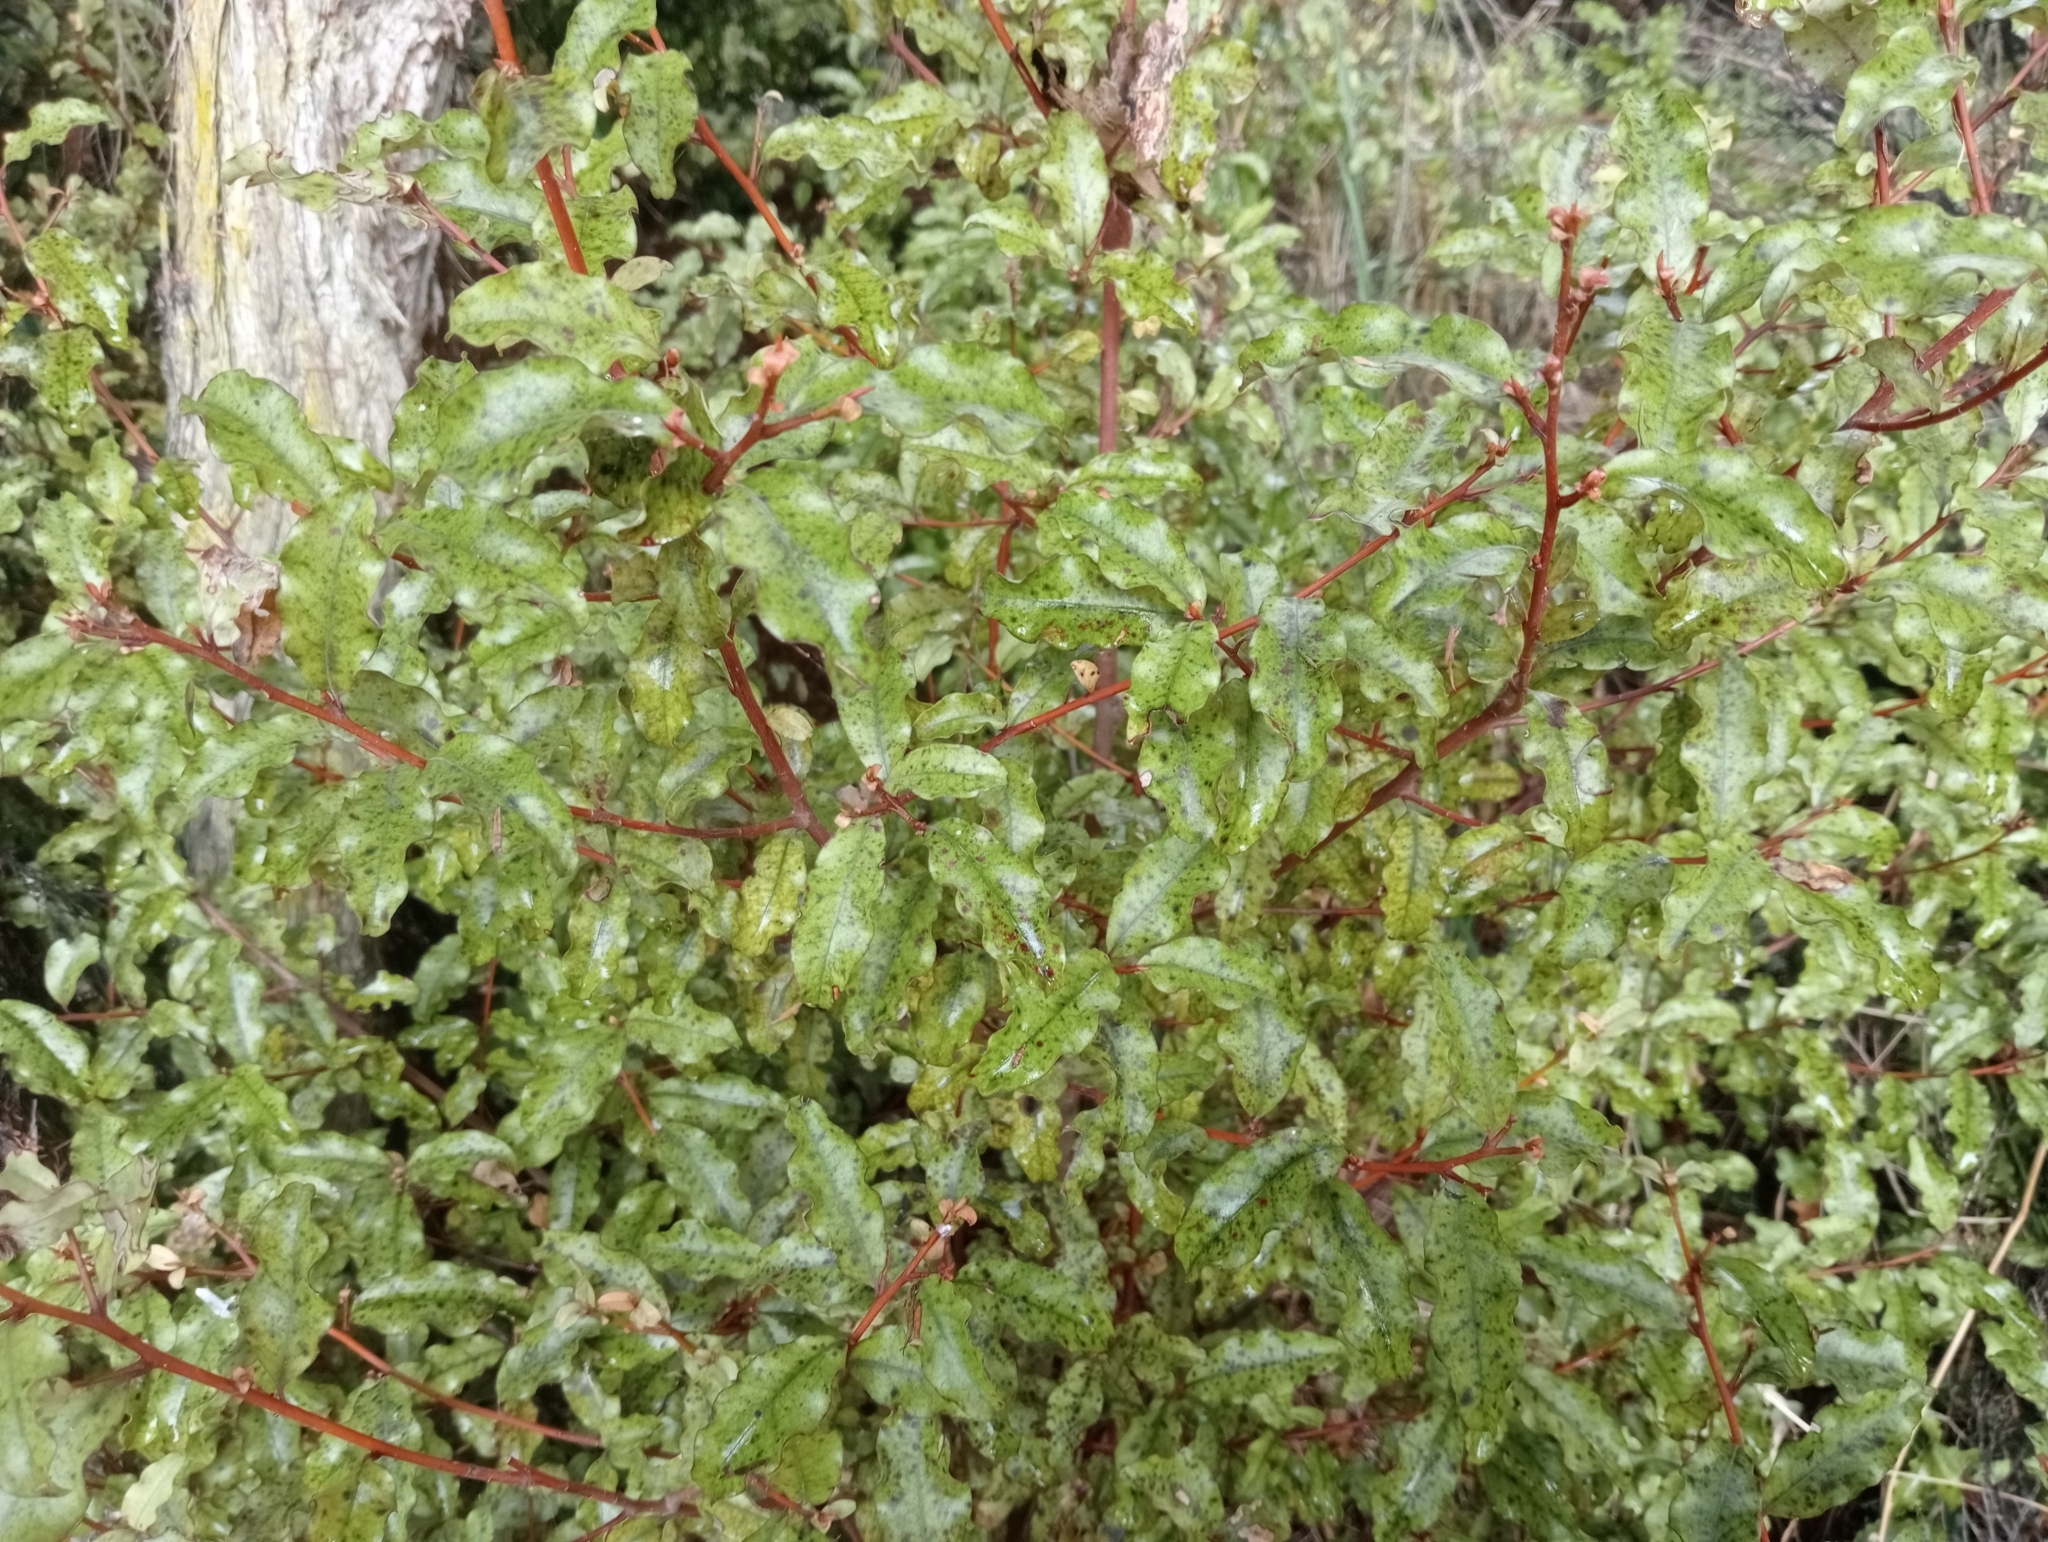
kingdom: Plantae
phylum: Tracheophyta
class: Magnoliopsida
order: Ericales
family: Primulaceae
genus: Myrsine
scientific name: Myrsine australis
